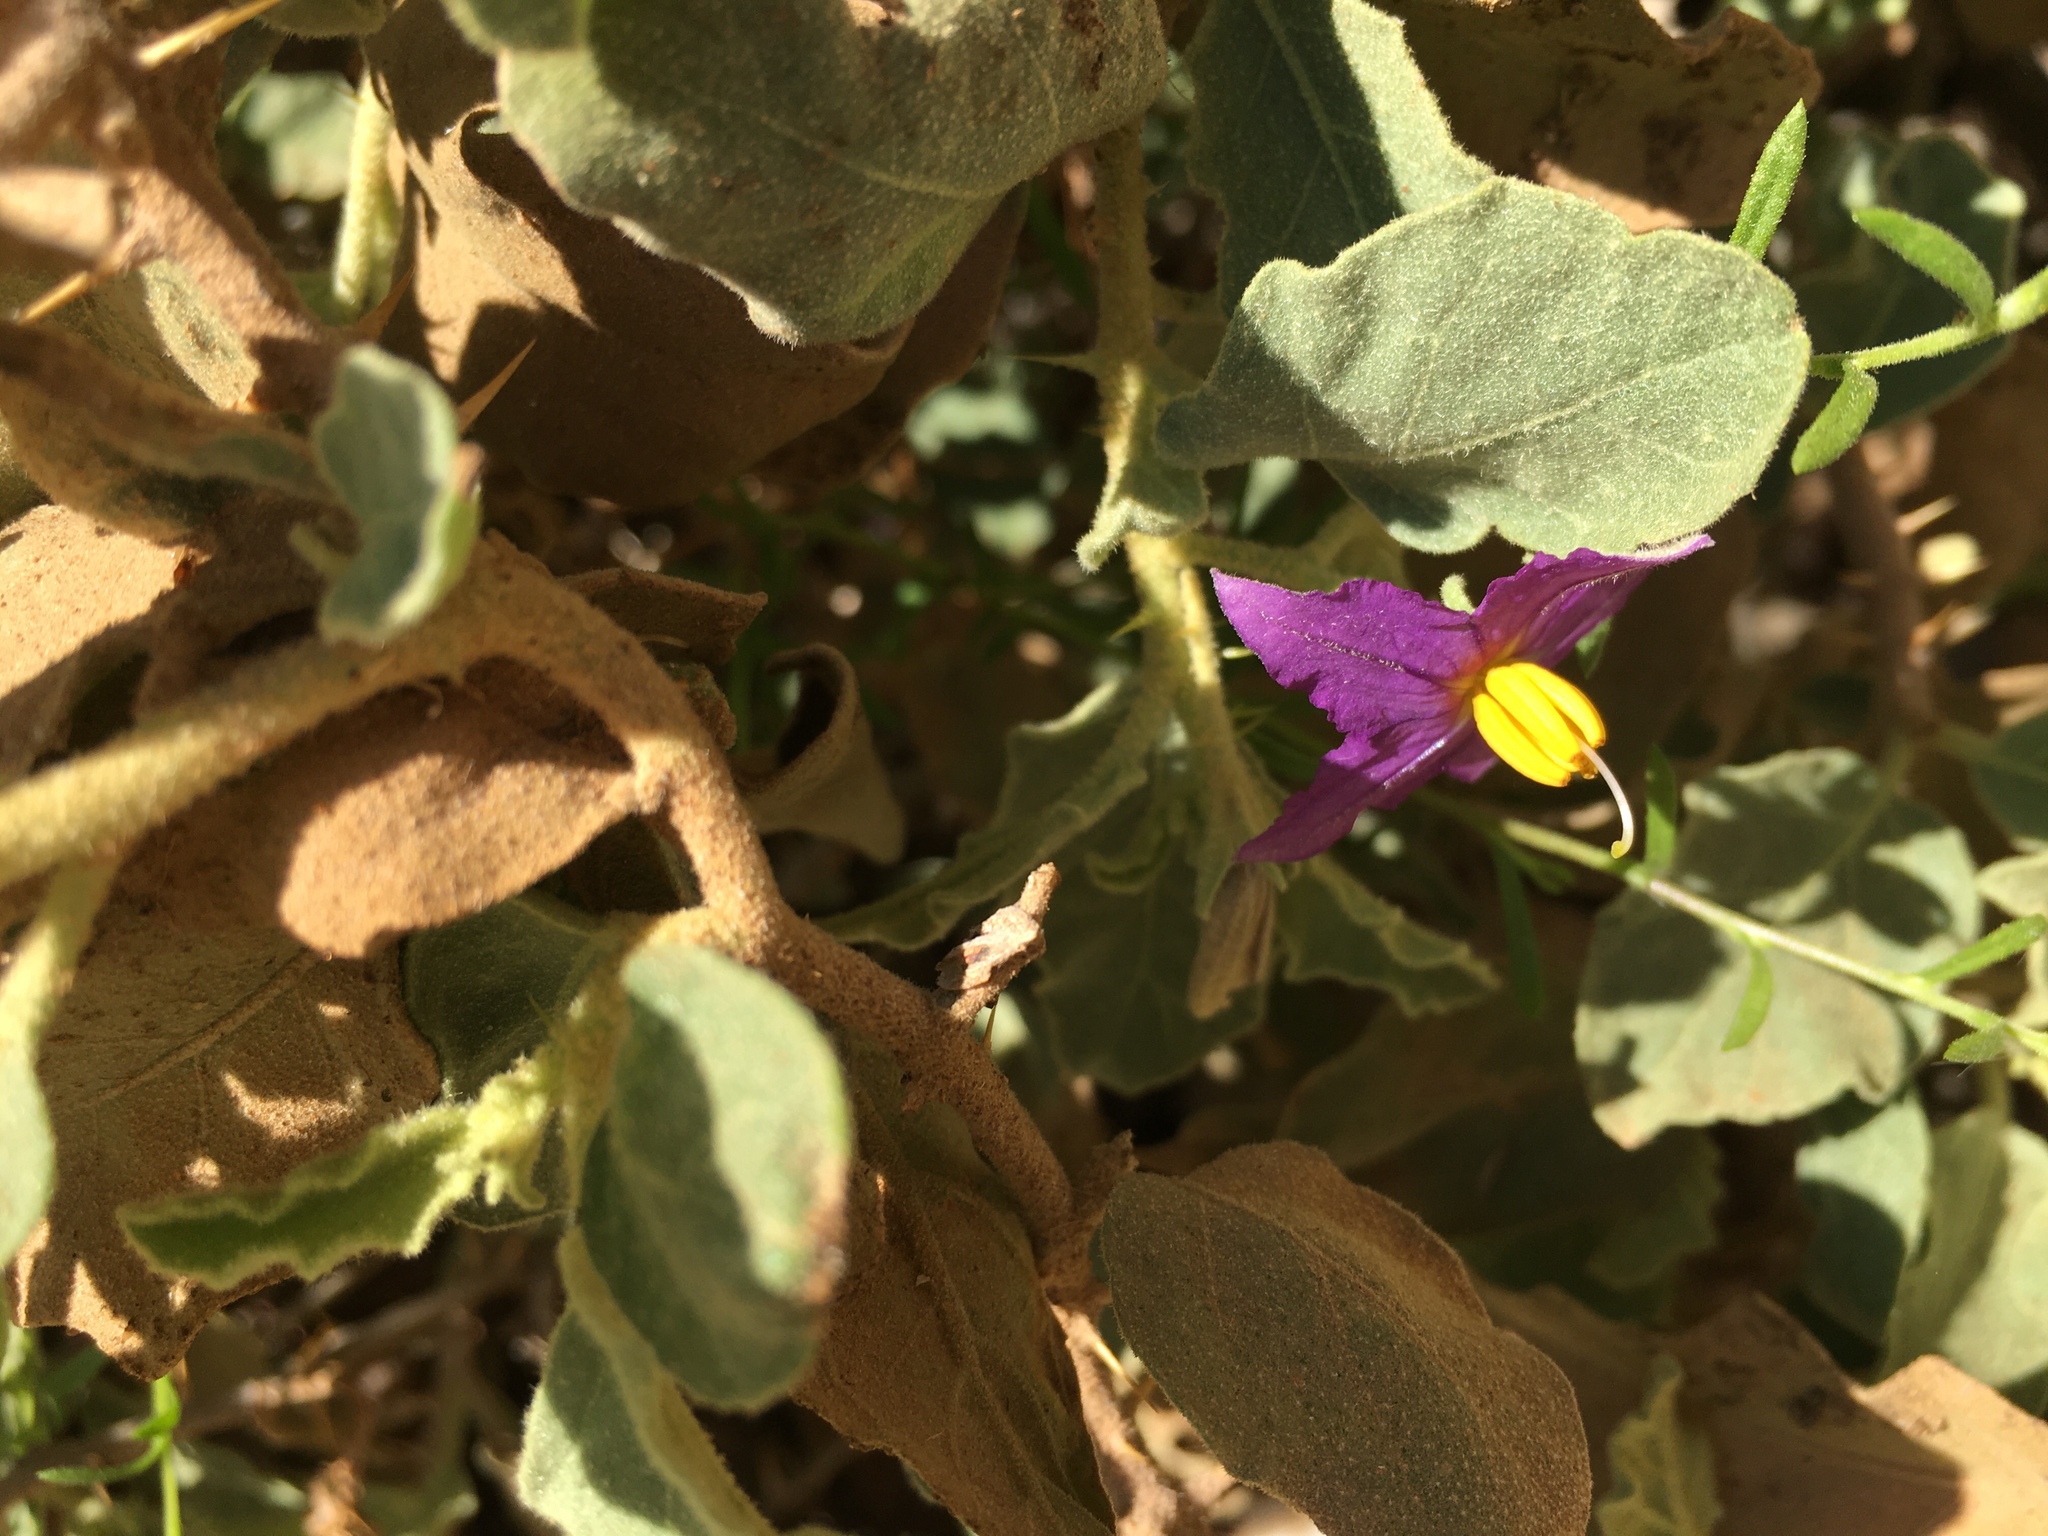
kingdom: Plantae
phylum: Tracheophyta
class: Magnoliopsida
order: Solanales
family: Solanaceae
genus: Solanum
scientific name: Solanum burchellii
